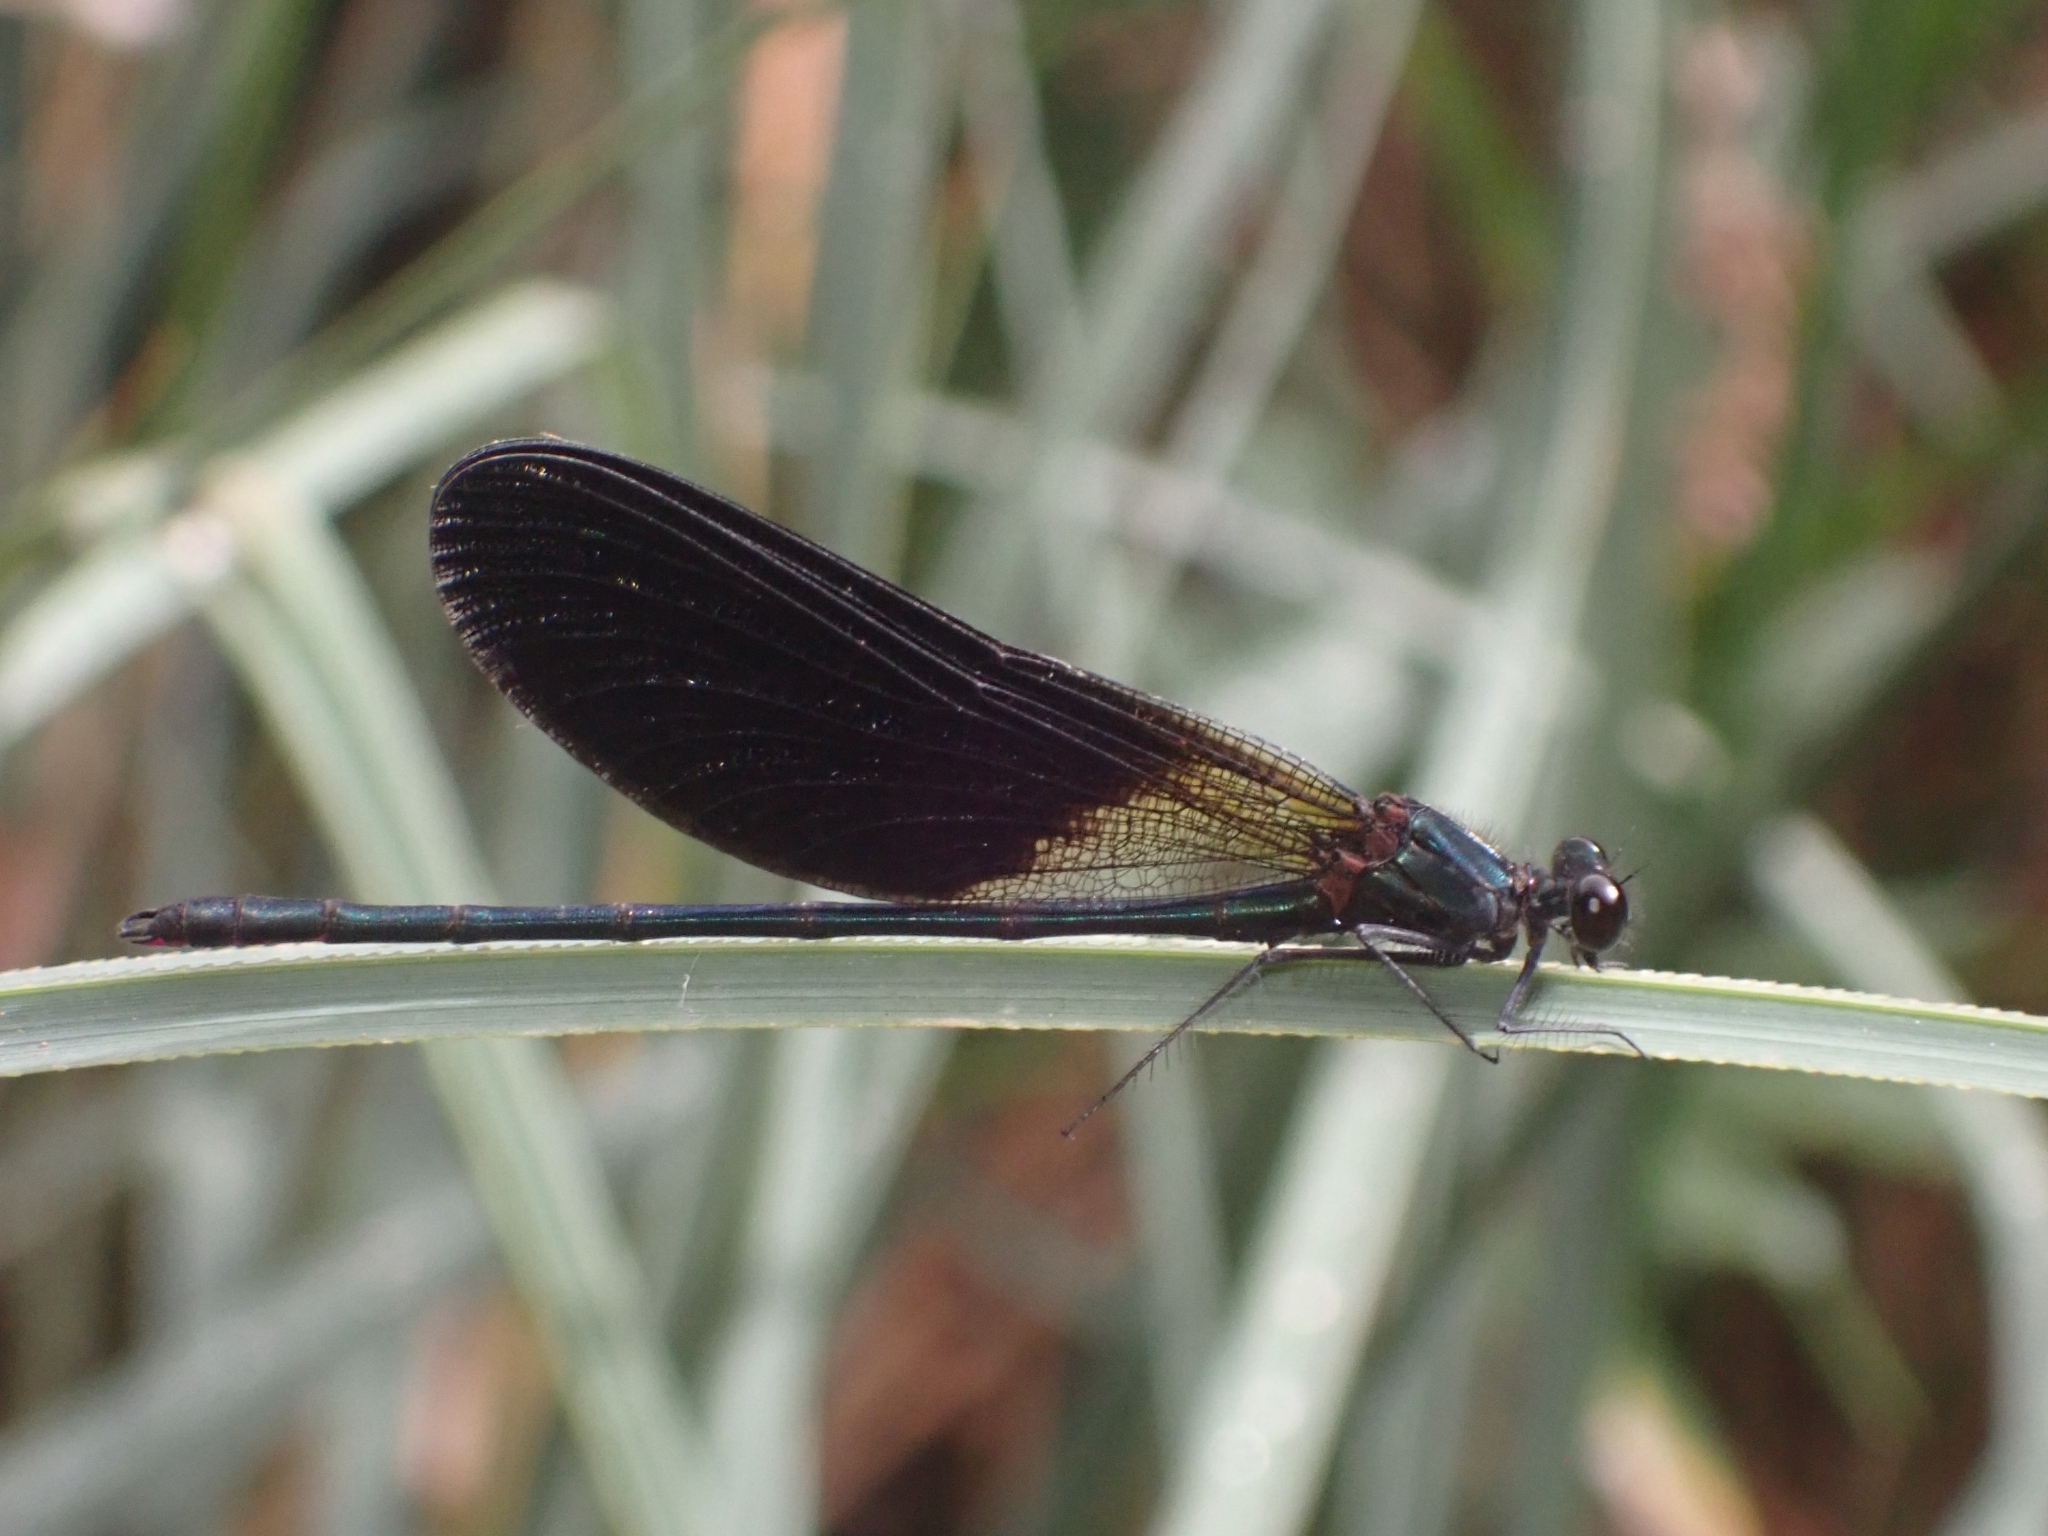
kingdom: Animalia
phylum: Arthropoda
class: Insecta
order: Odonata
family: Calopterygidae
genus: Calopteryx
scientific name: Calopteryx haemorrhoidalis
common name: Copper demoiselle
